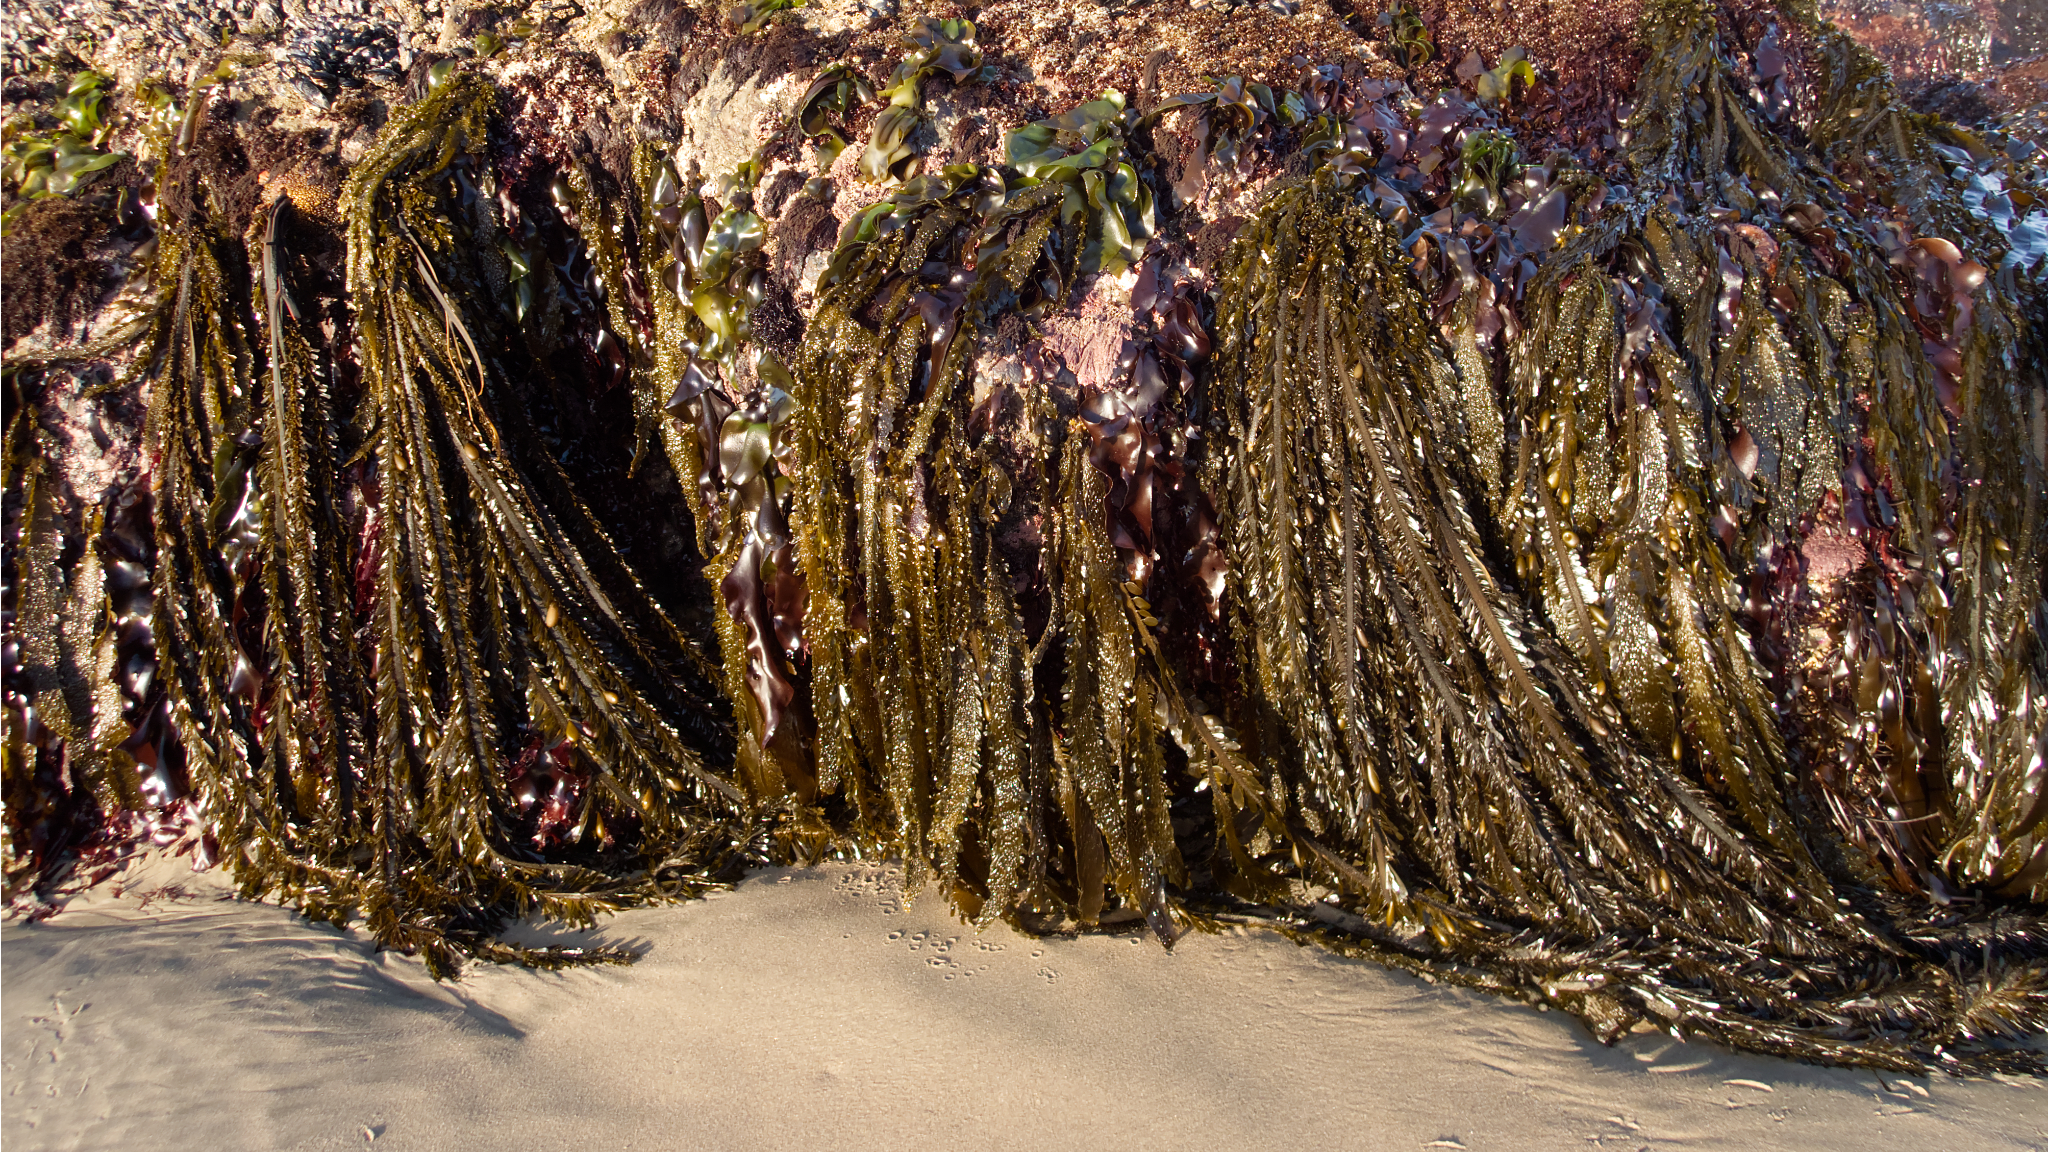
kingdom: Chromista
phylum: Ochrophyta
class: Phaeophyceae
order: Laminariales
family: Lessoniaceae
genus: Egregia
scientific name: Egregia menziesii
